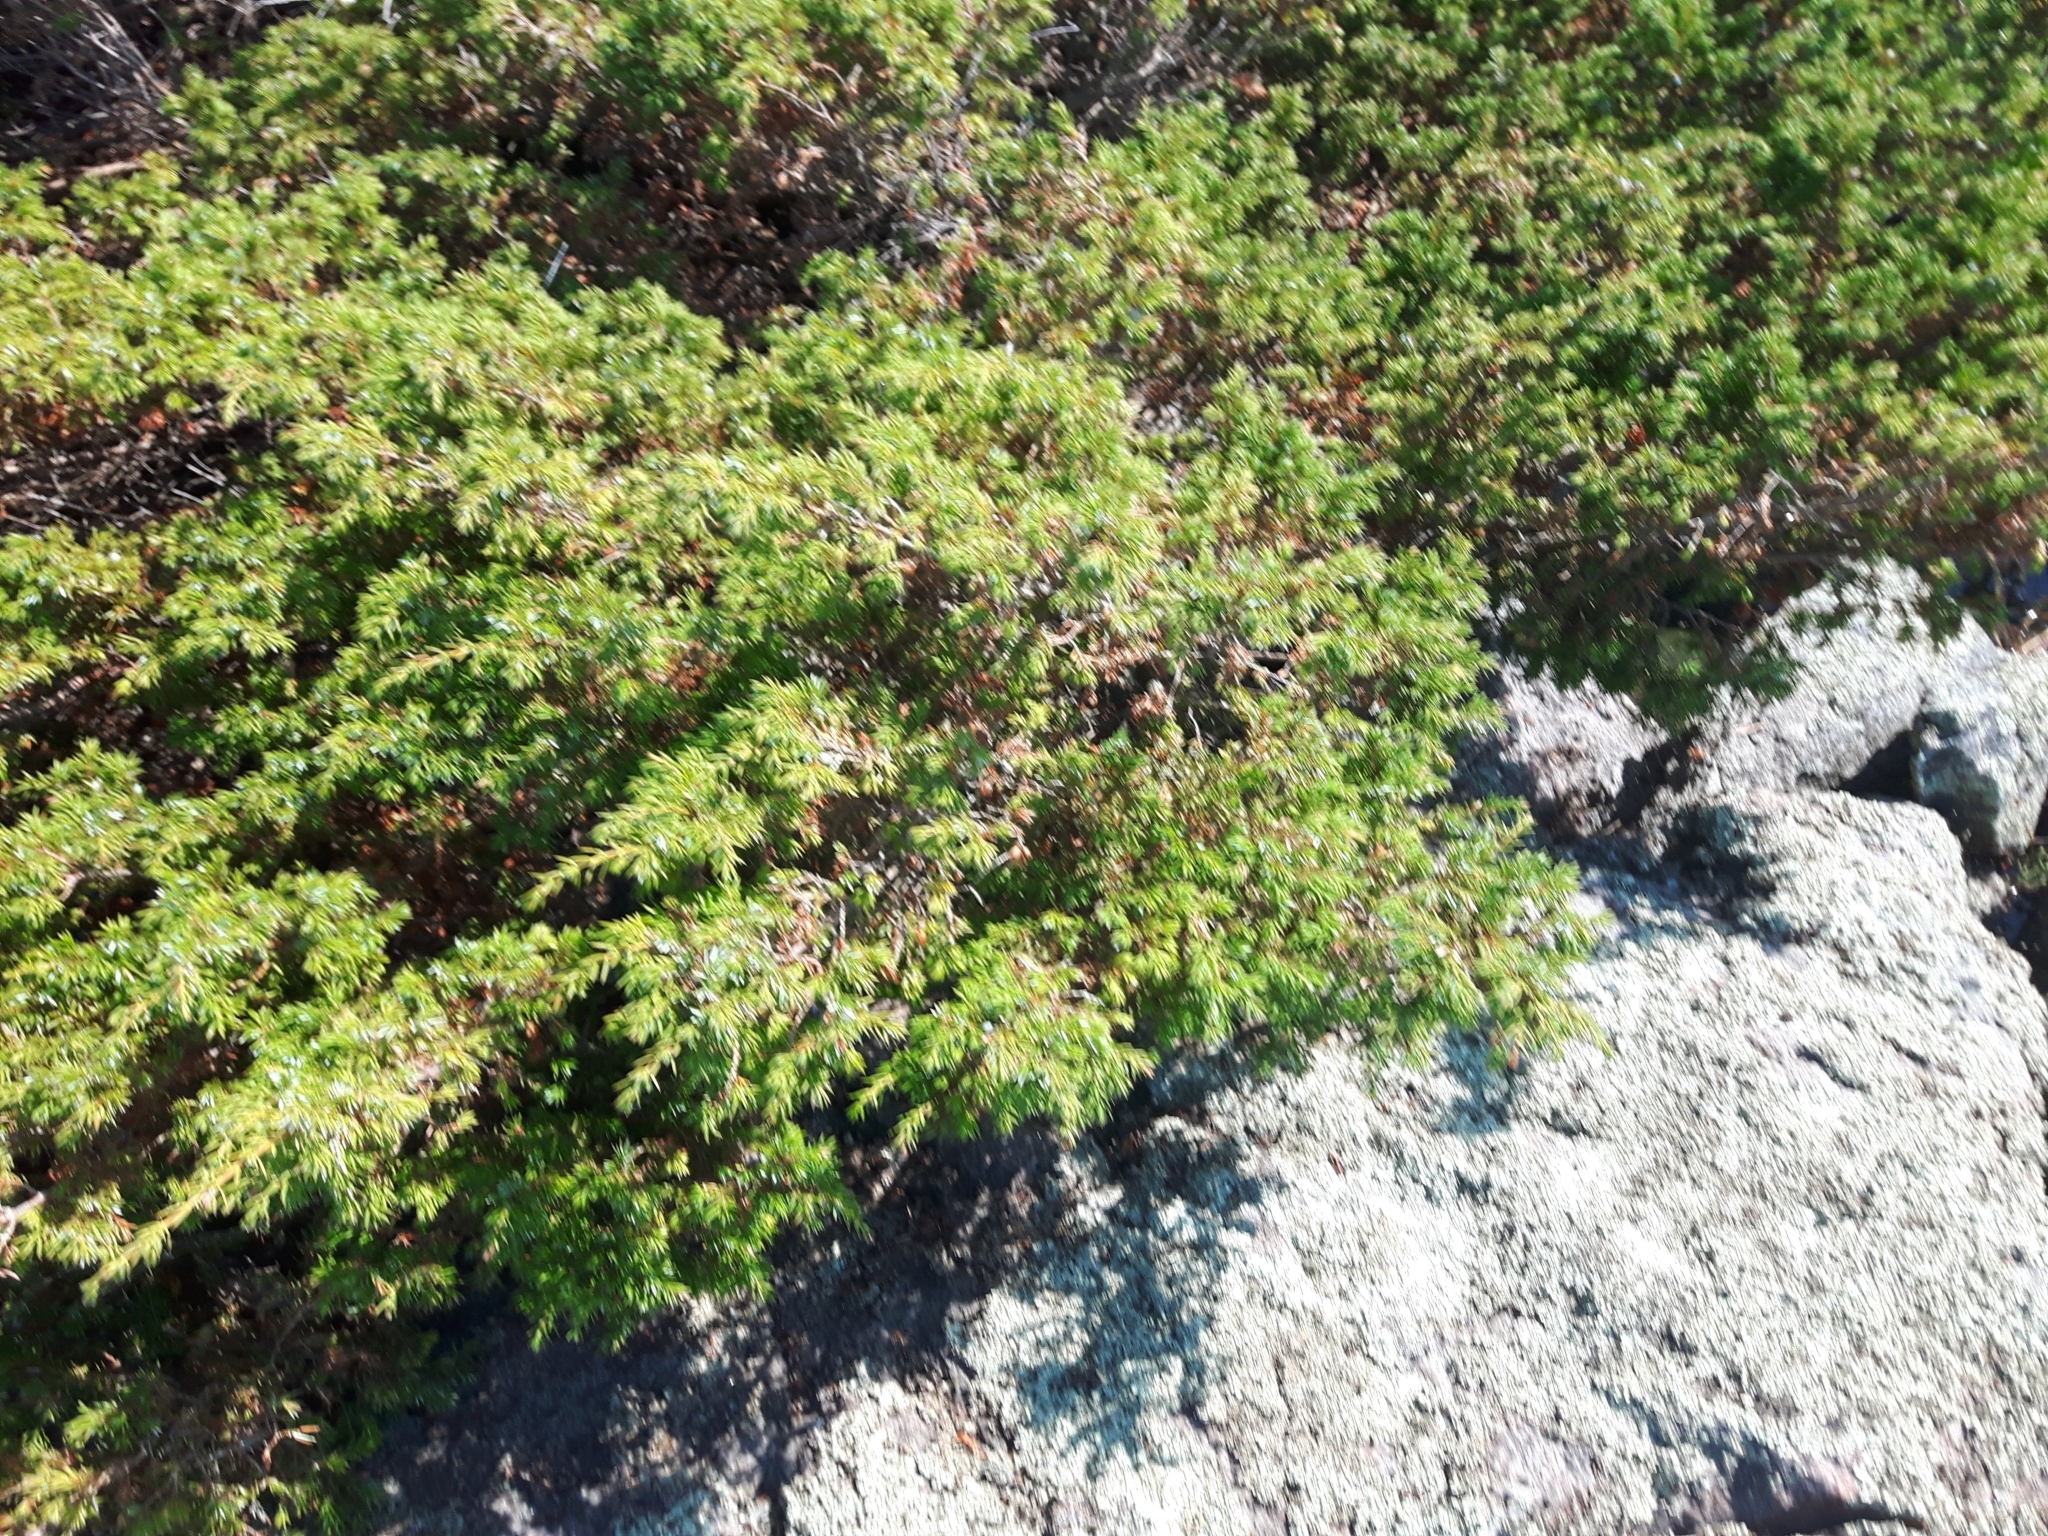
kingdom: Plantae
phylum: Tracheophyta
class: Pinopsida
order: Pinales
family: Cupressaceae
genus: Juniperus
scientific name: Juniperus communis
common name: Common juniper
